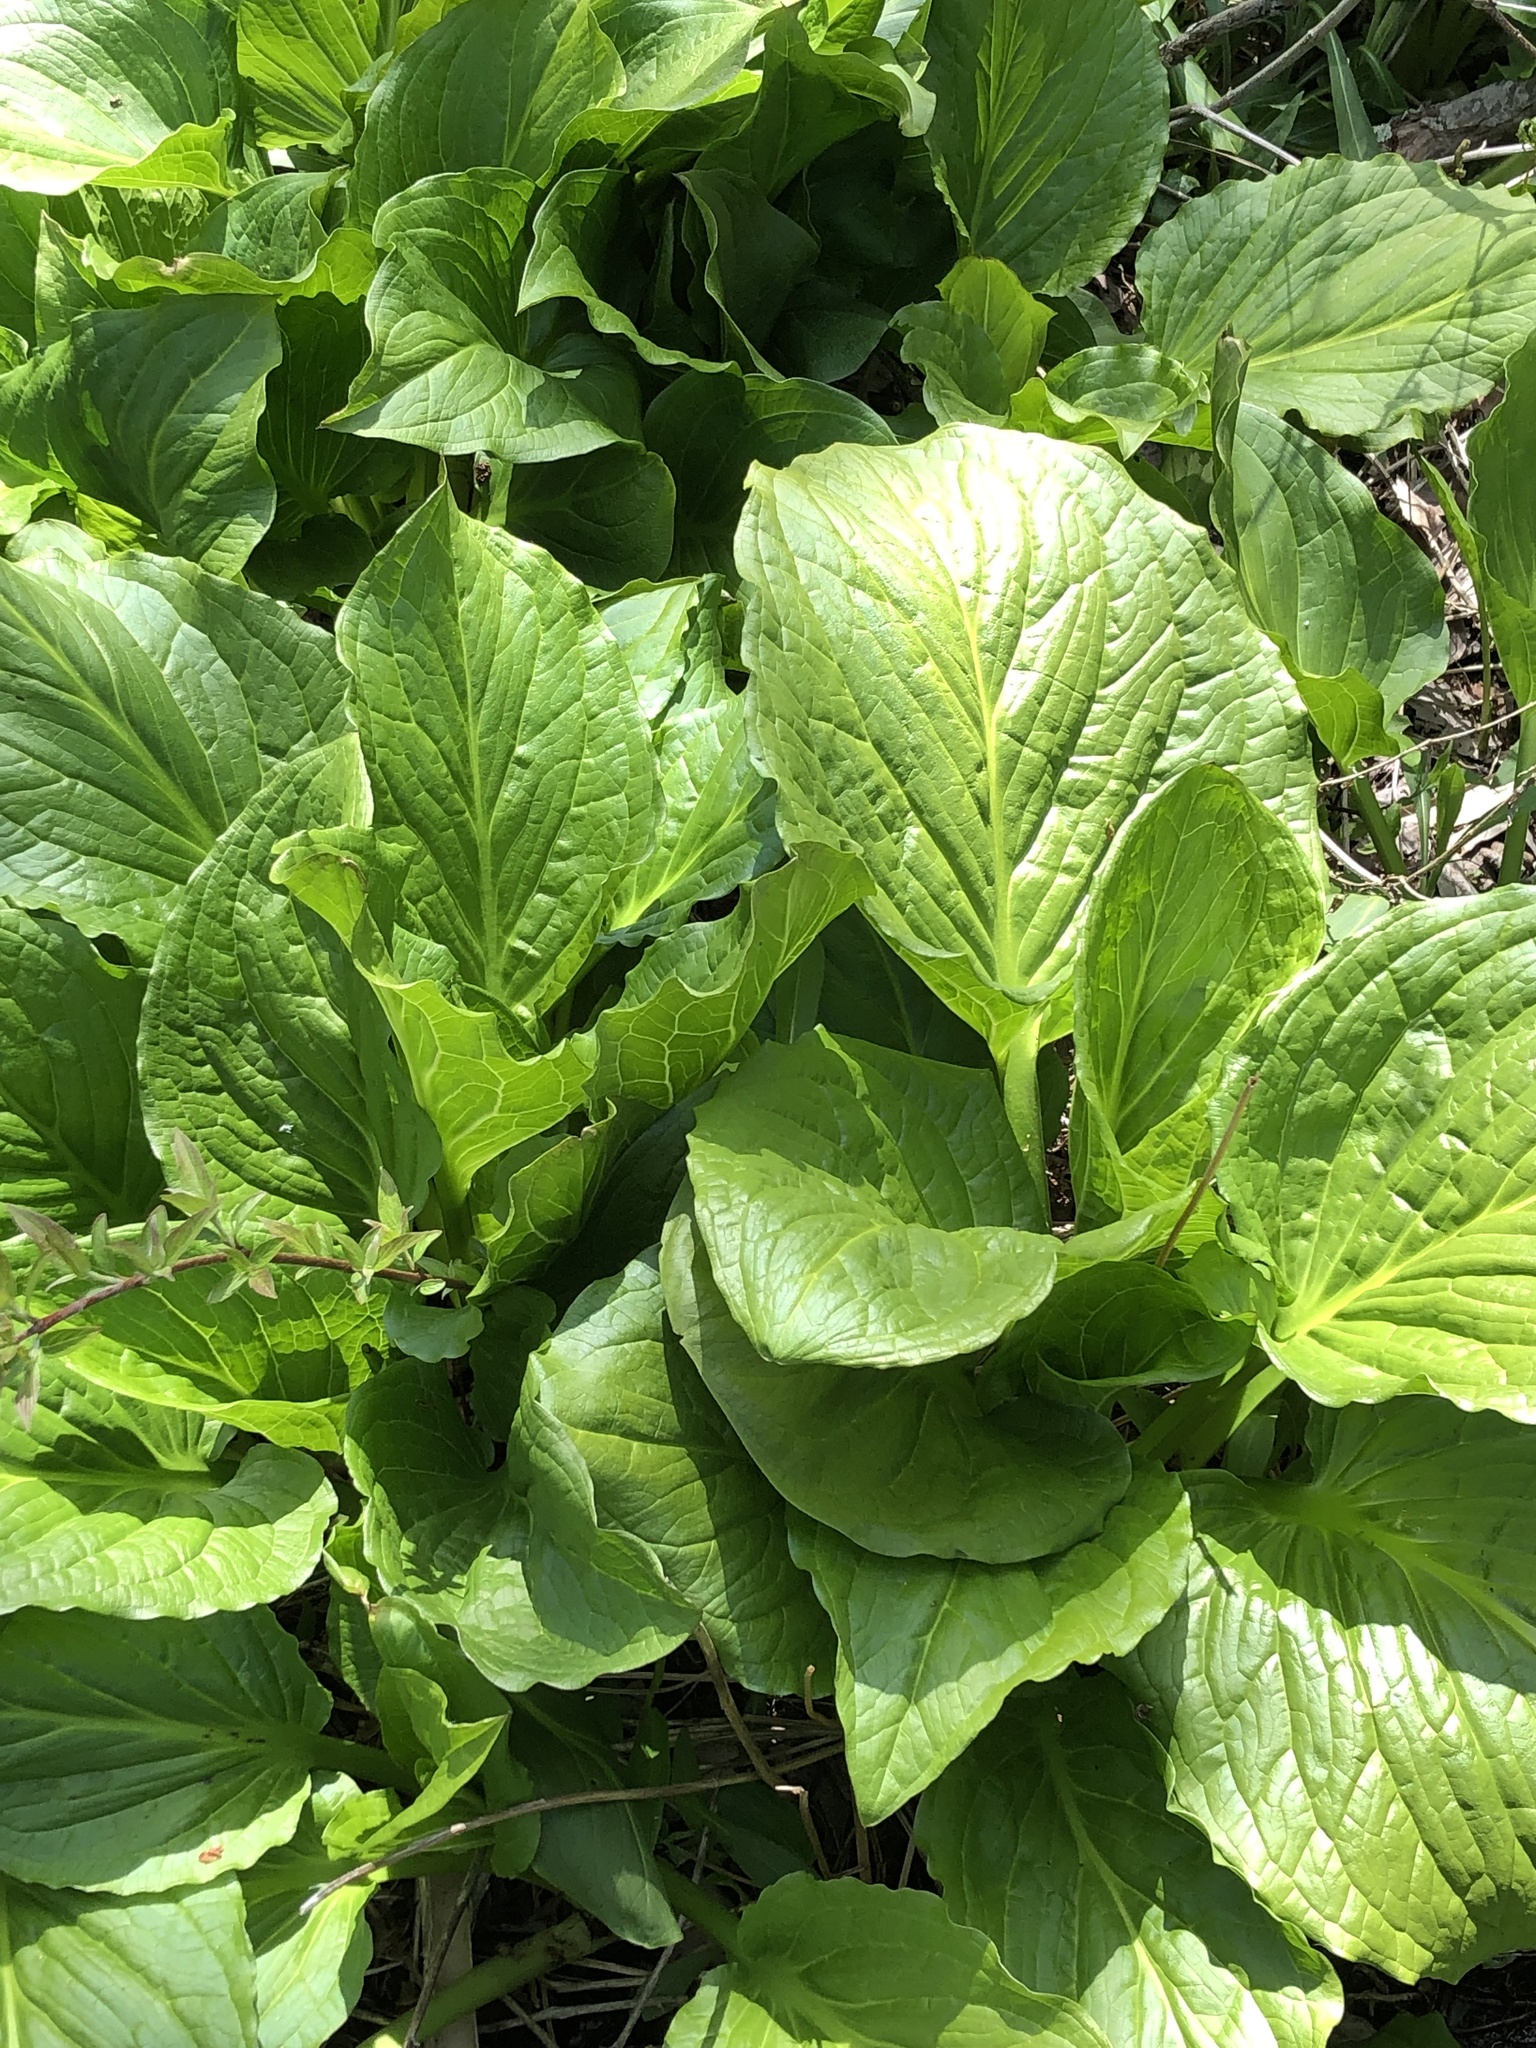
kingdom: Plantae
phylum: Tracheophyta
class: Liliopsida
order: Alismatales
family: Araceae
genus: Symplocarpus
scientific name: Symplocarpus foetidus
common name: Eastern skunk cabbage
